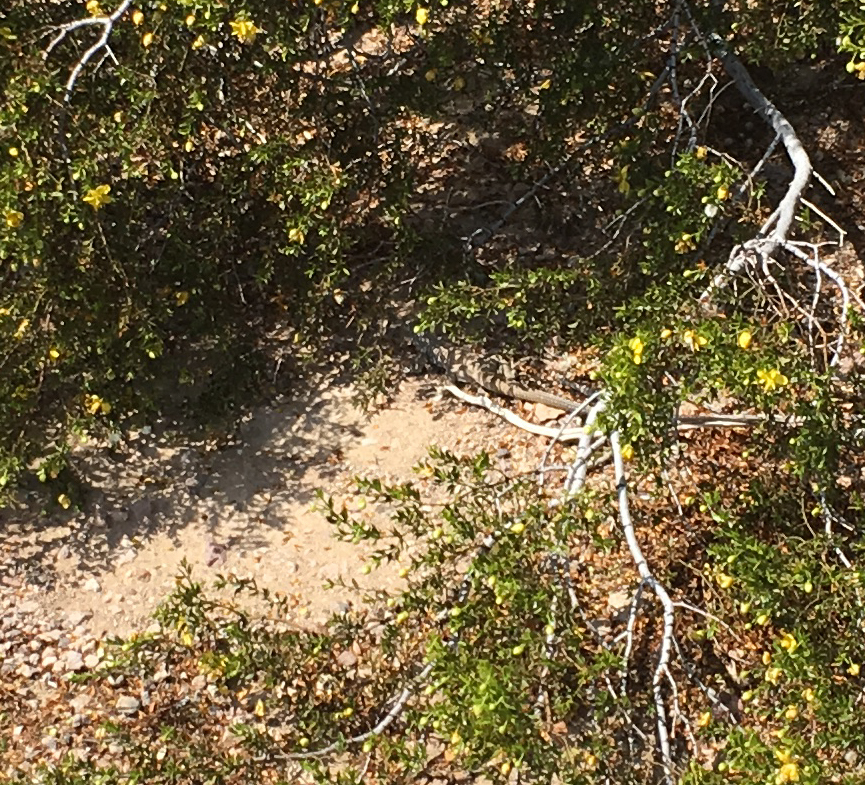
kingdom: Animalia
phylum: Chordata
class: Squamata
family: Teiidae
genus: Aspidoscelis
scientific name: Aspidoscelis tigris
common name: Tiger whiptail
